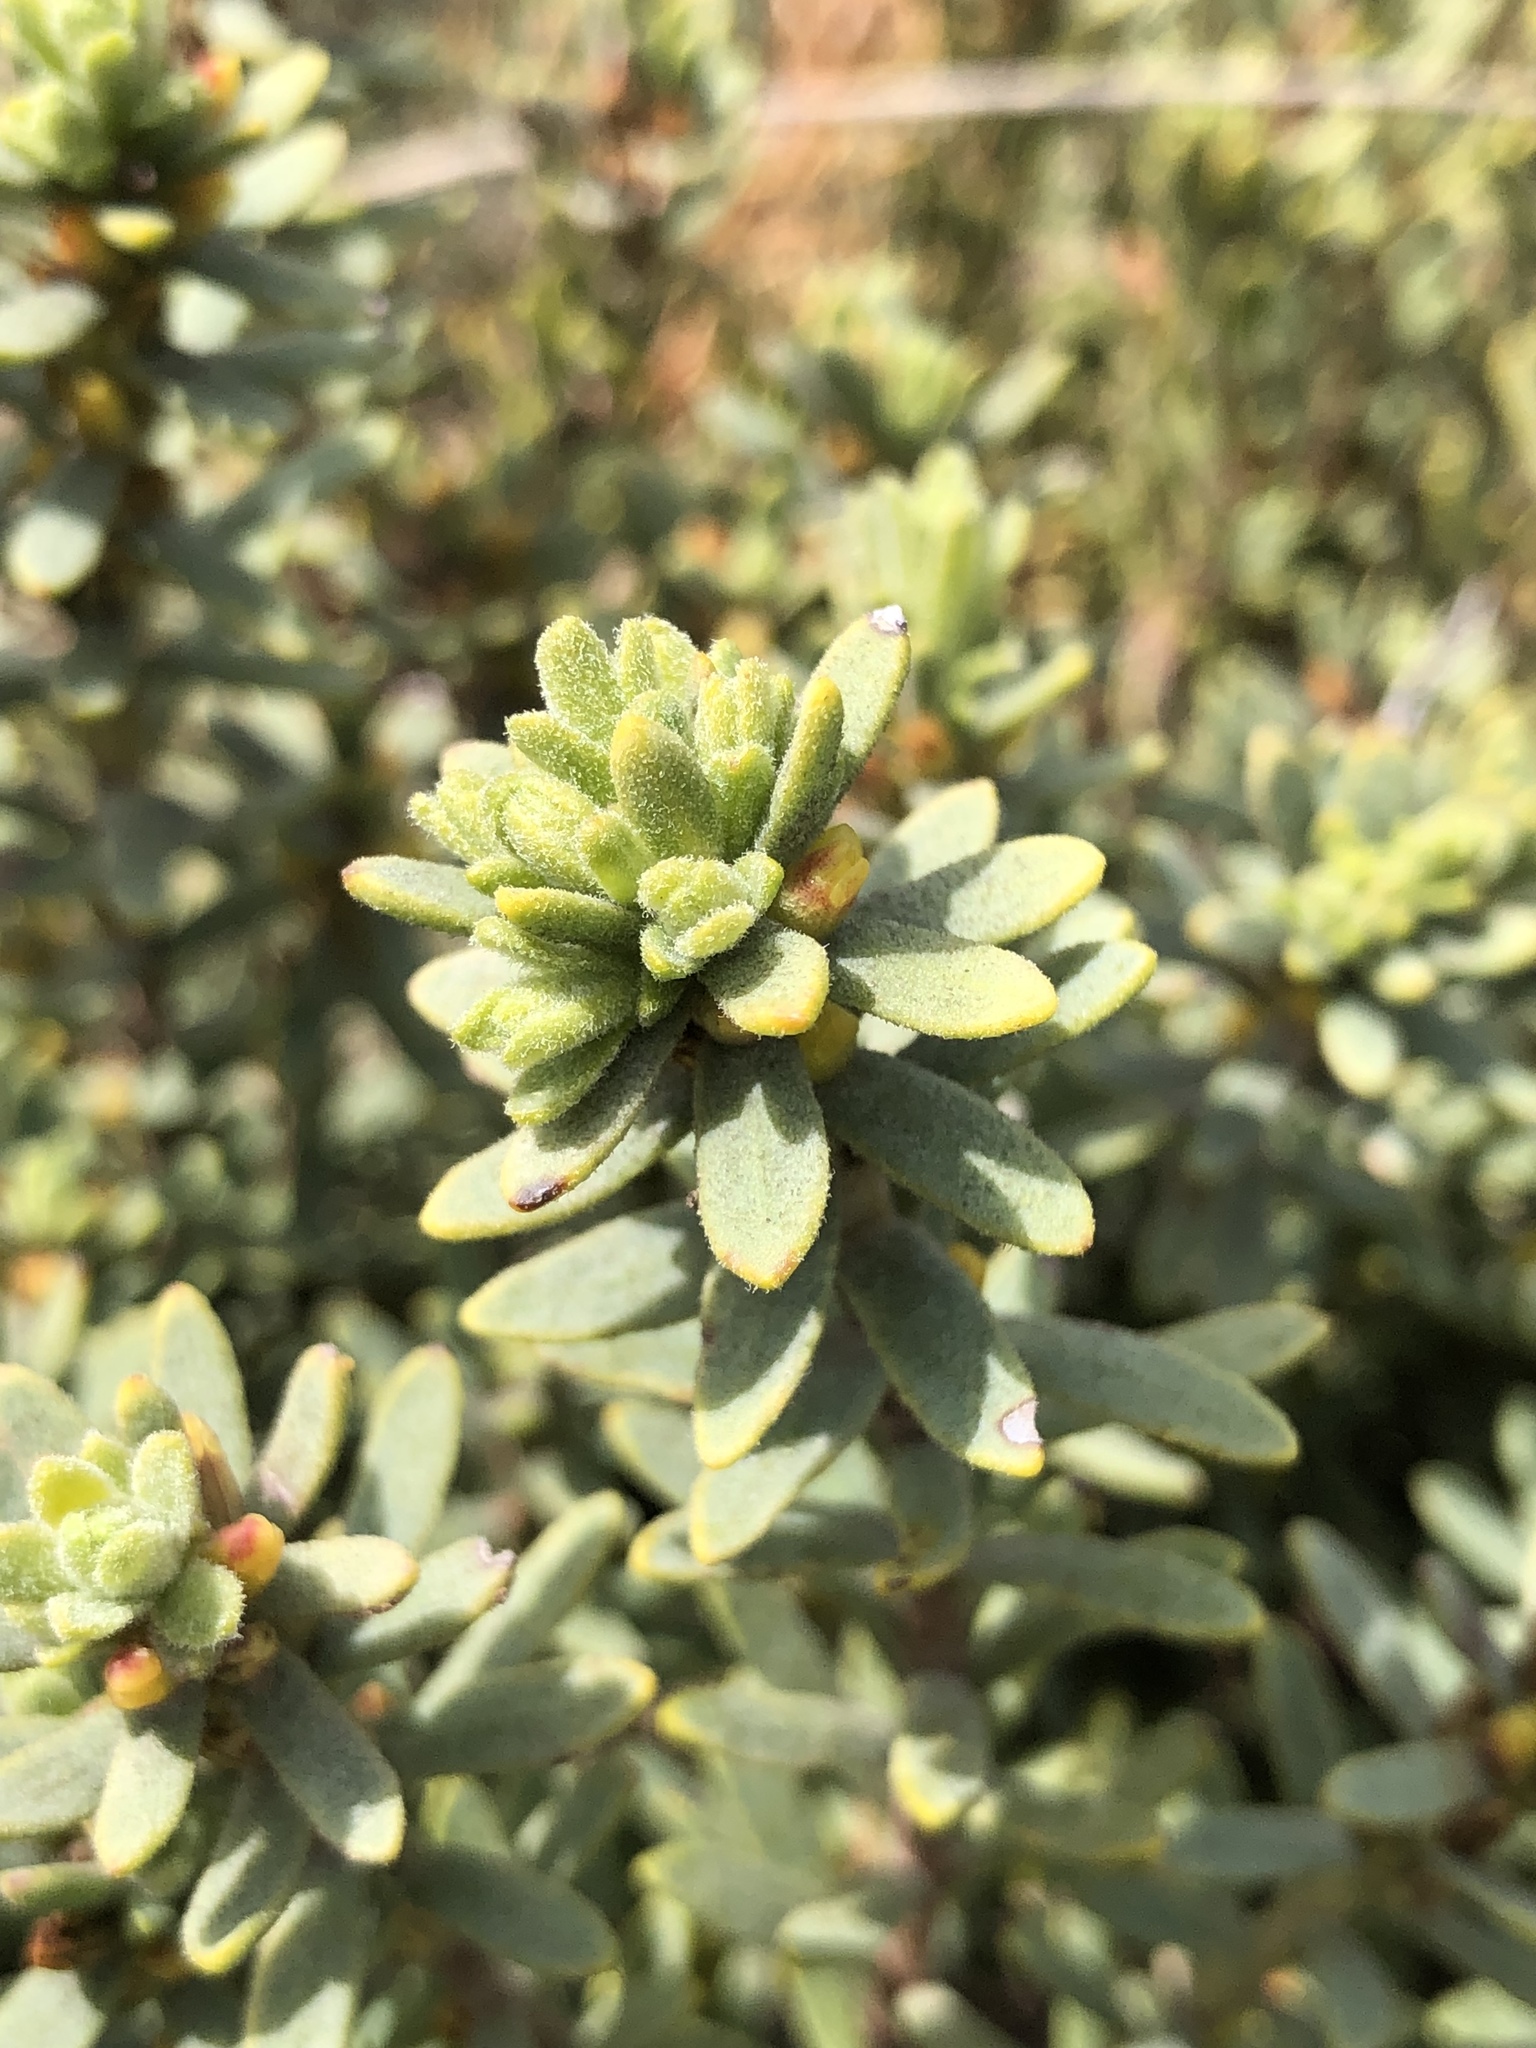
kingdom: Plantae
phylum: Tracheophyta
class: Magnoliopsida
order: Malvales
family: Thymelaeaceae
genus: Thymelaea
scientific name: Thymelaea tinctoria
